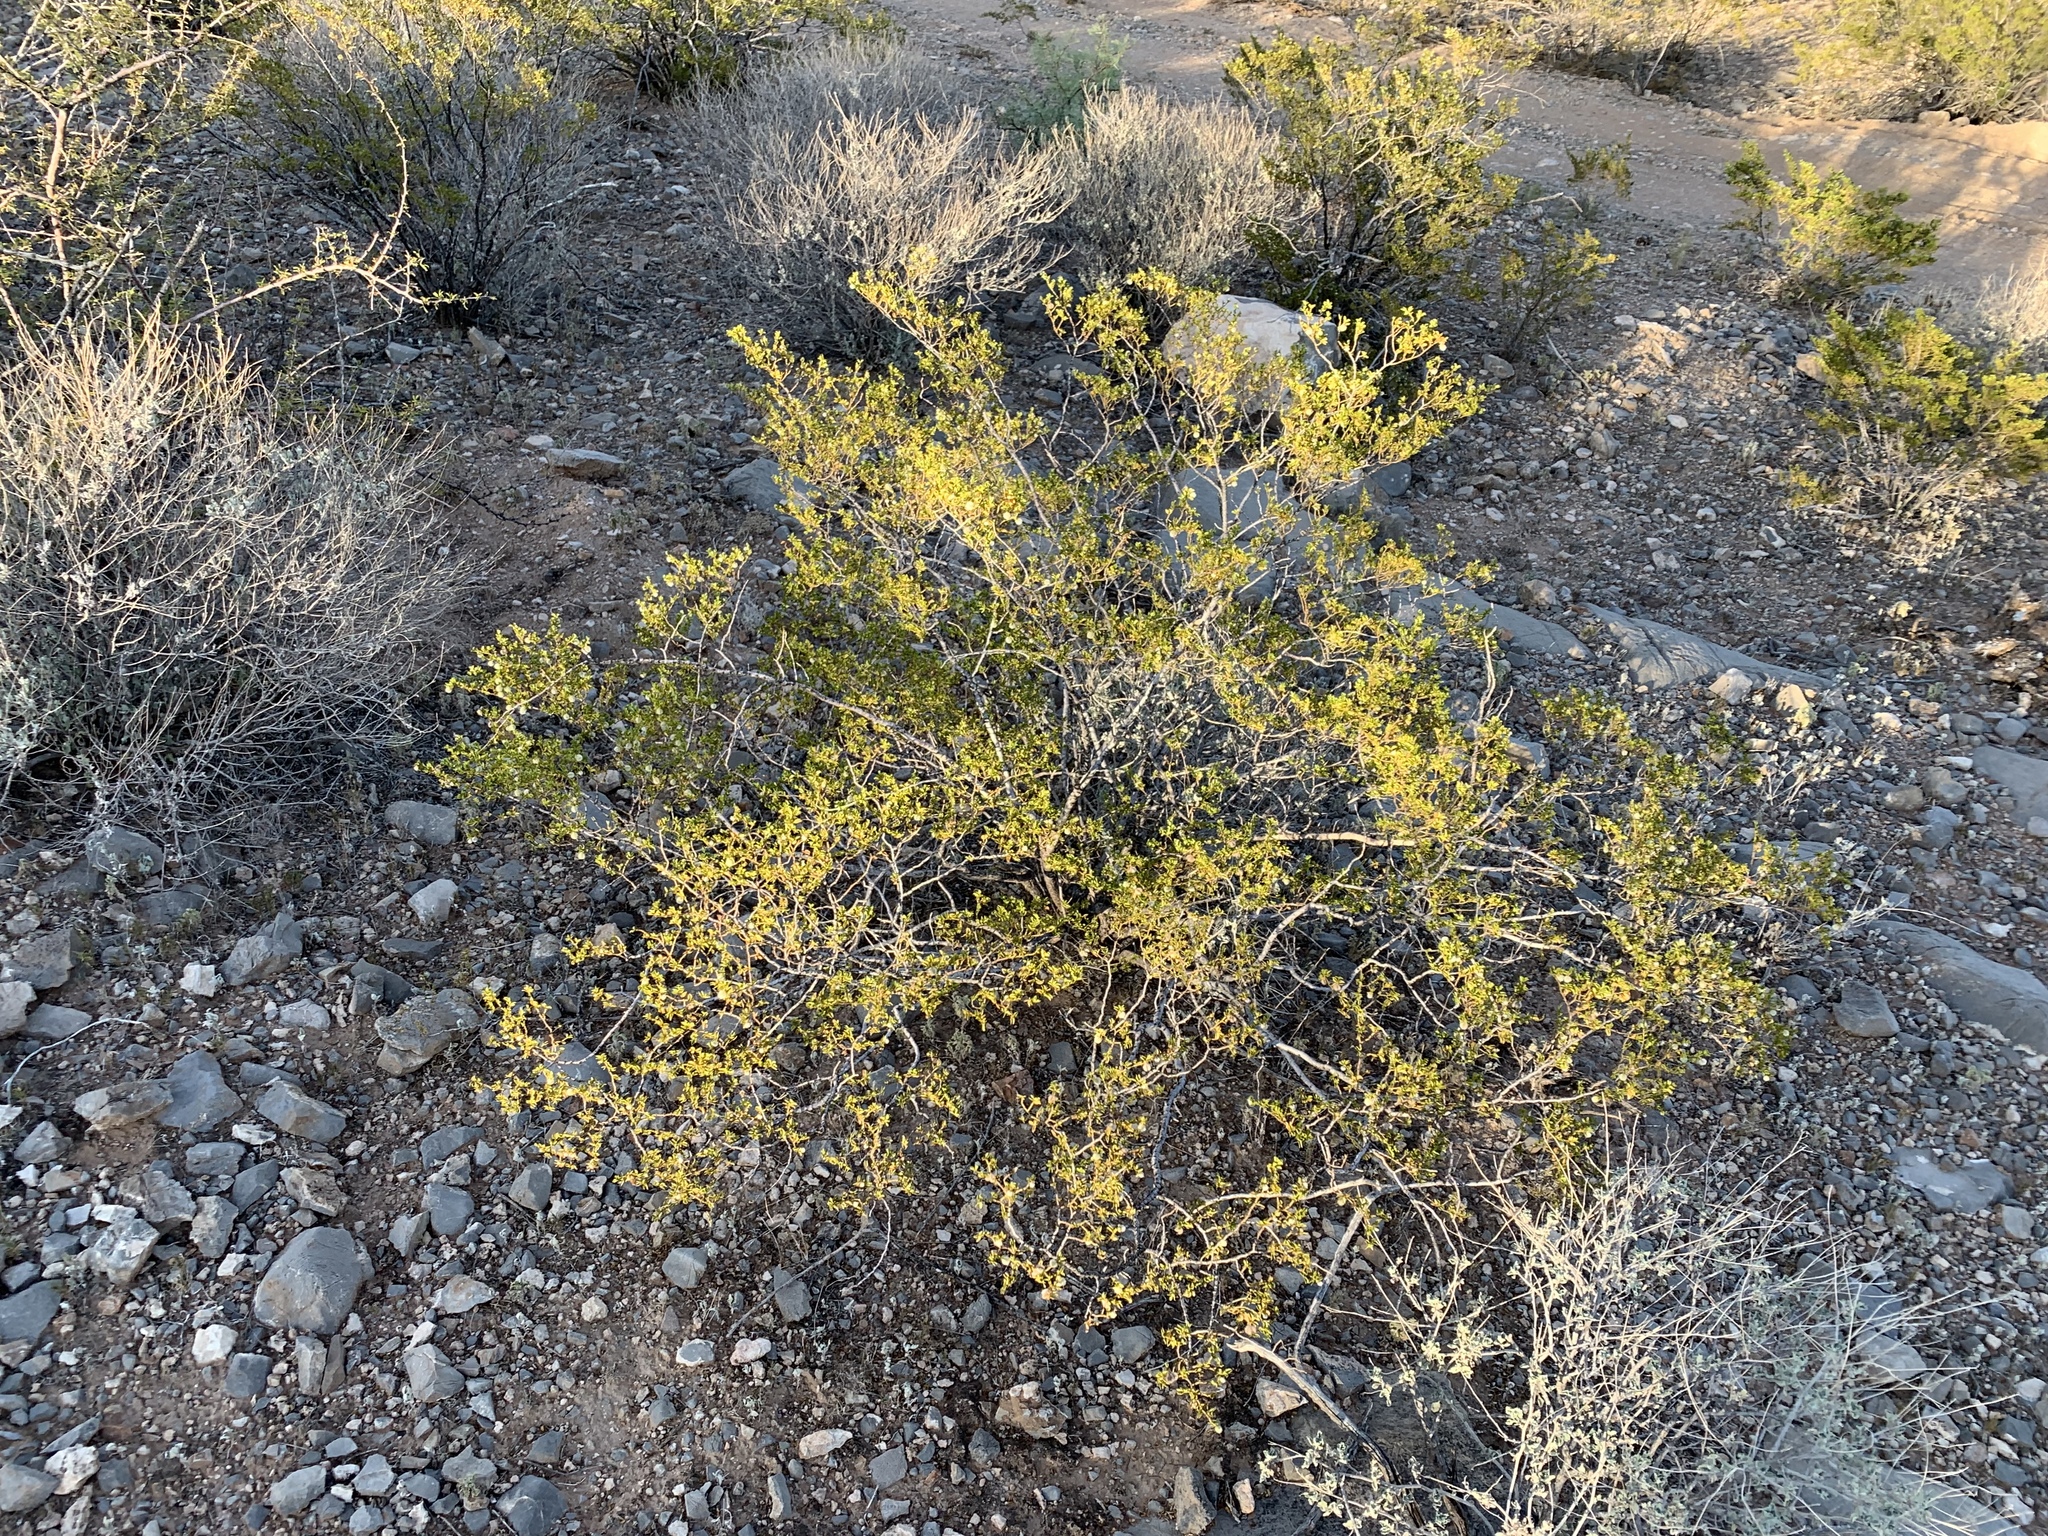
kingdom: Plantae
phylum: Tracheophyta
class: Magnoliopsida
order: Zygophyllales
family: Zygophyllaceae
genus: Larrea
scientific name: Larrea tridentata
